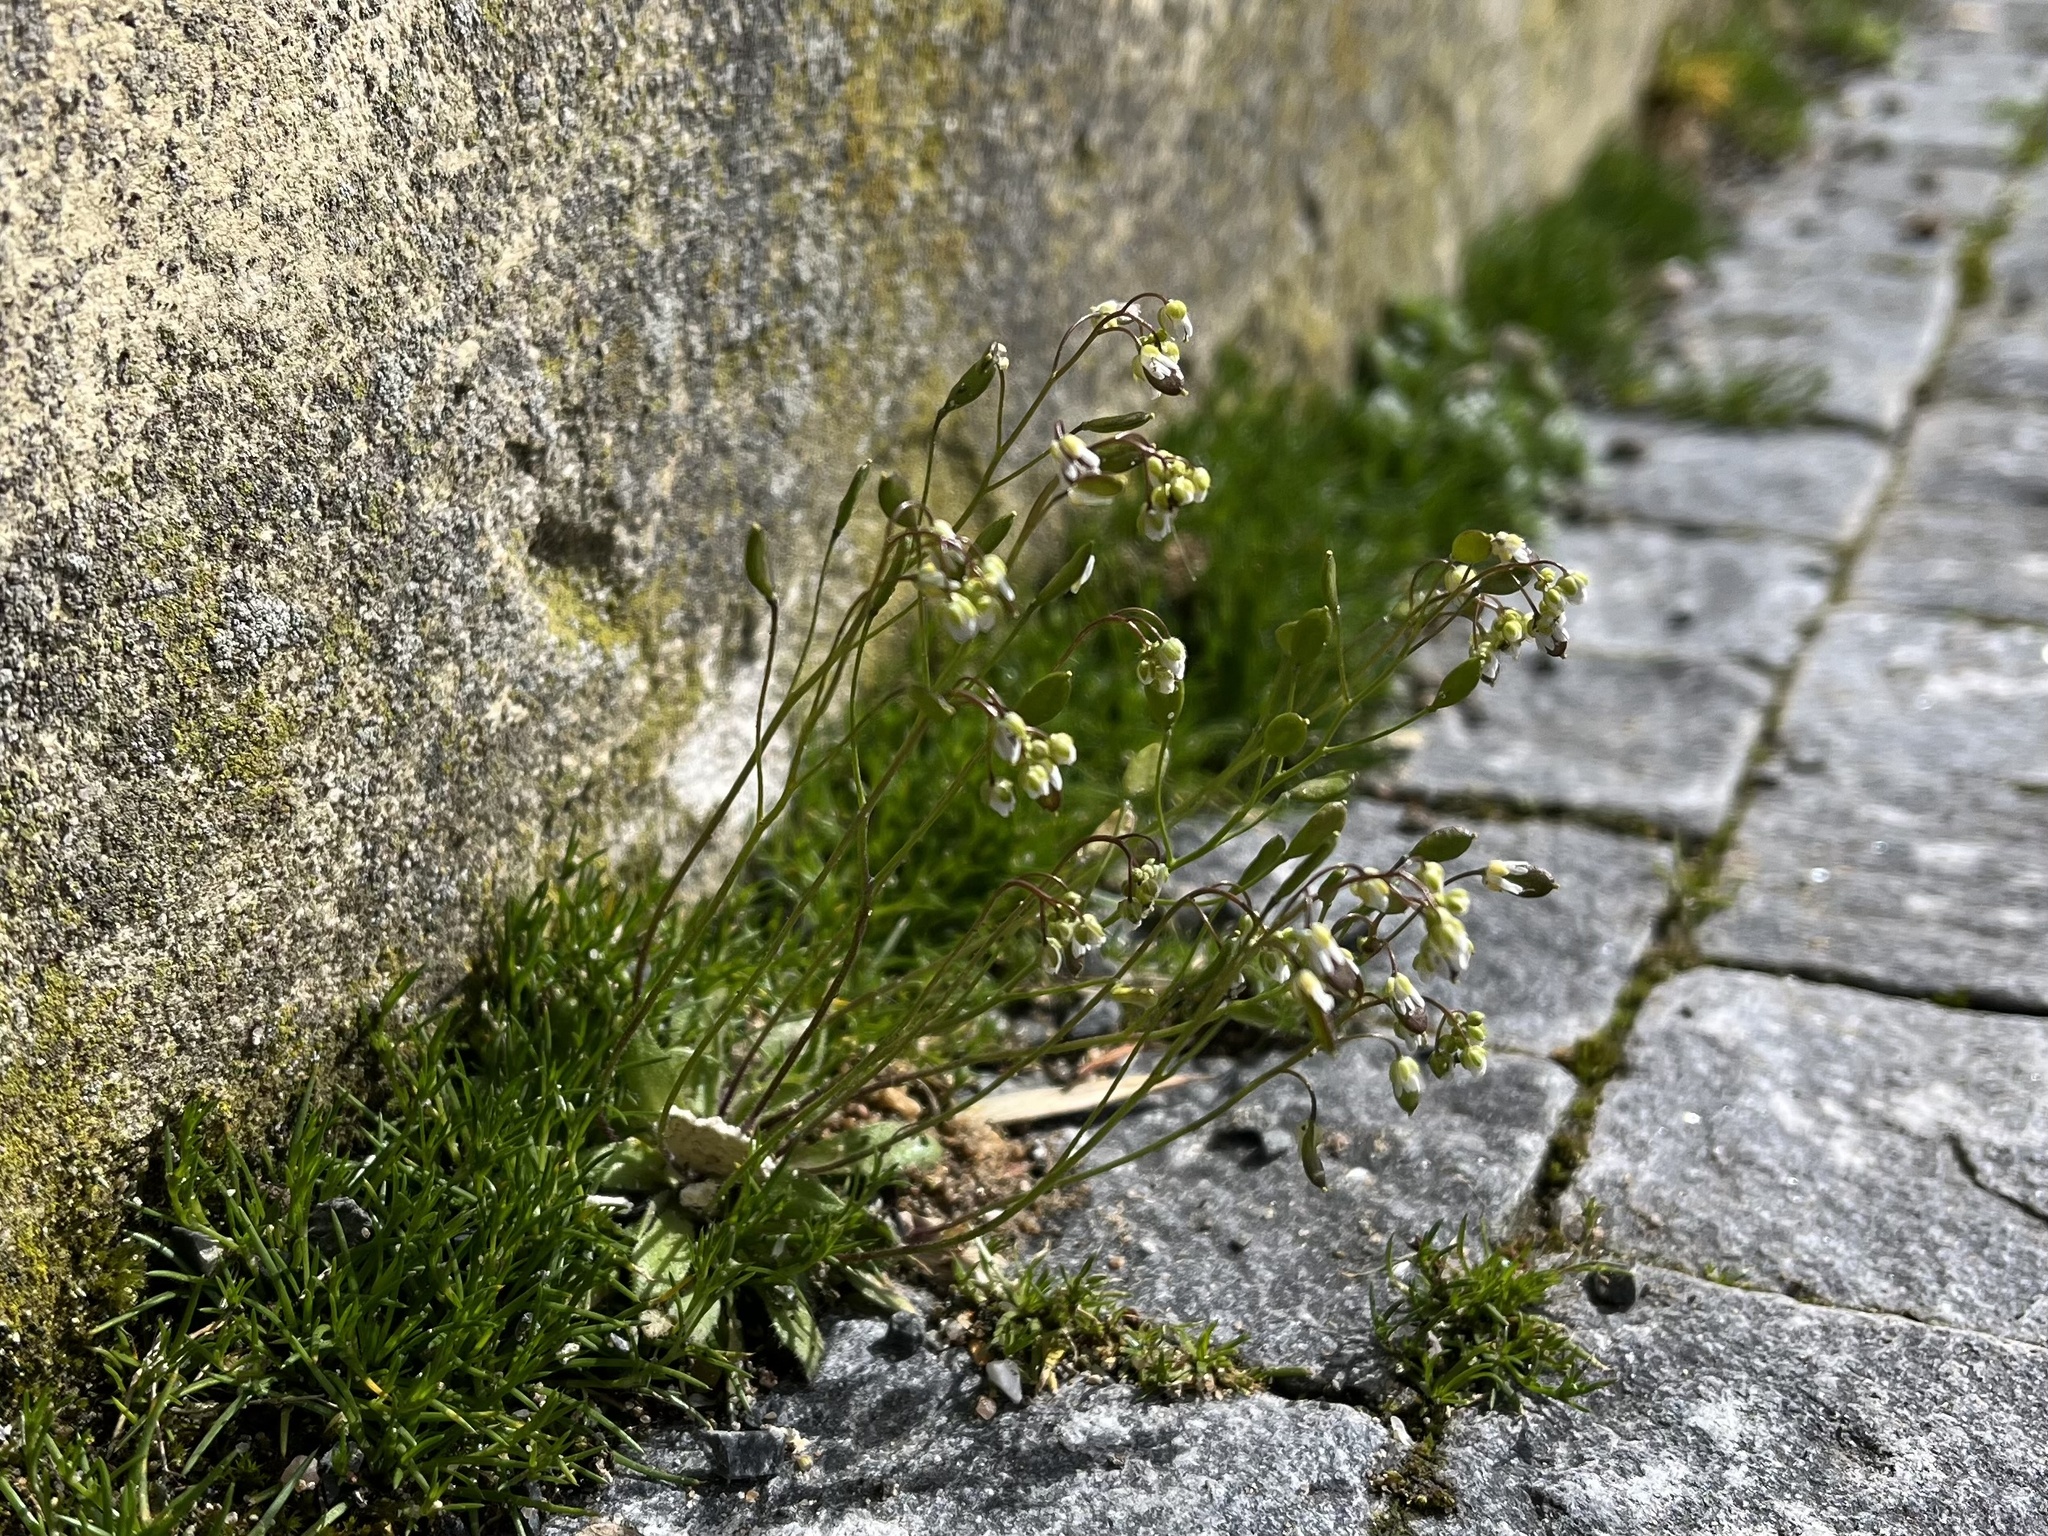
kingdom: Plantae
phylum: Tracheophyta
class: Magnoliopsida
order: Brassicales
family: Brassicaceae
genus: Draba
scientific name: Draba verna
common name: Spring draba
